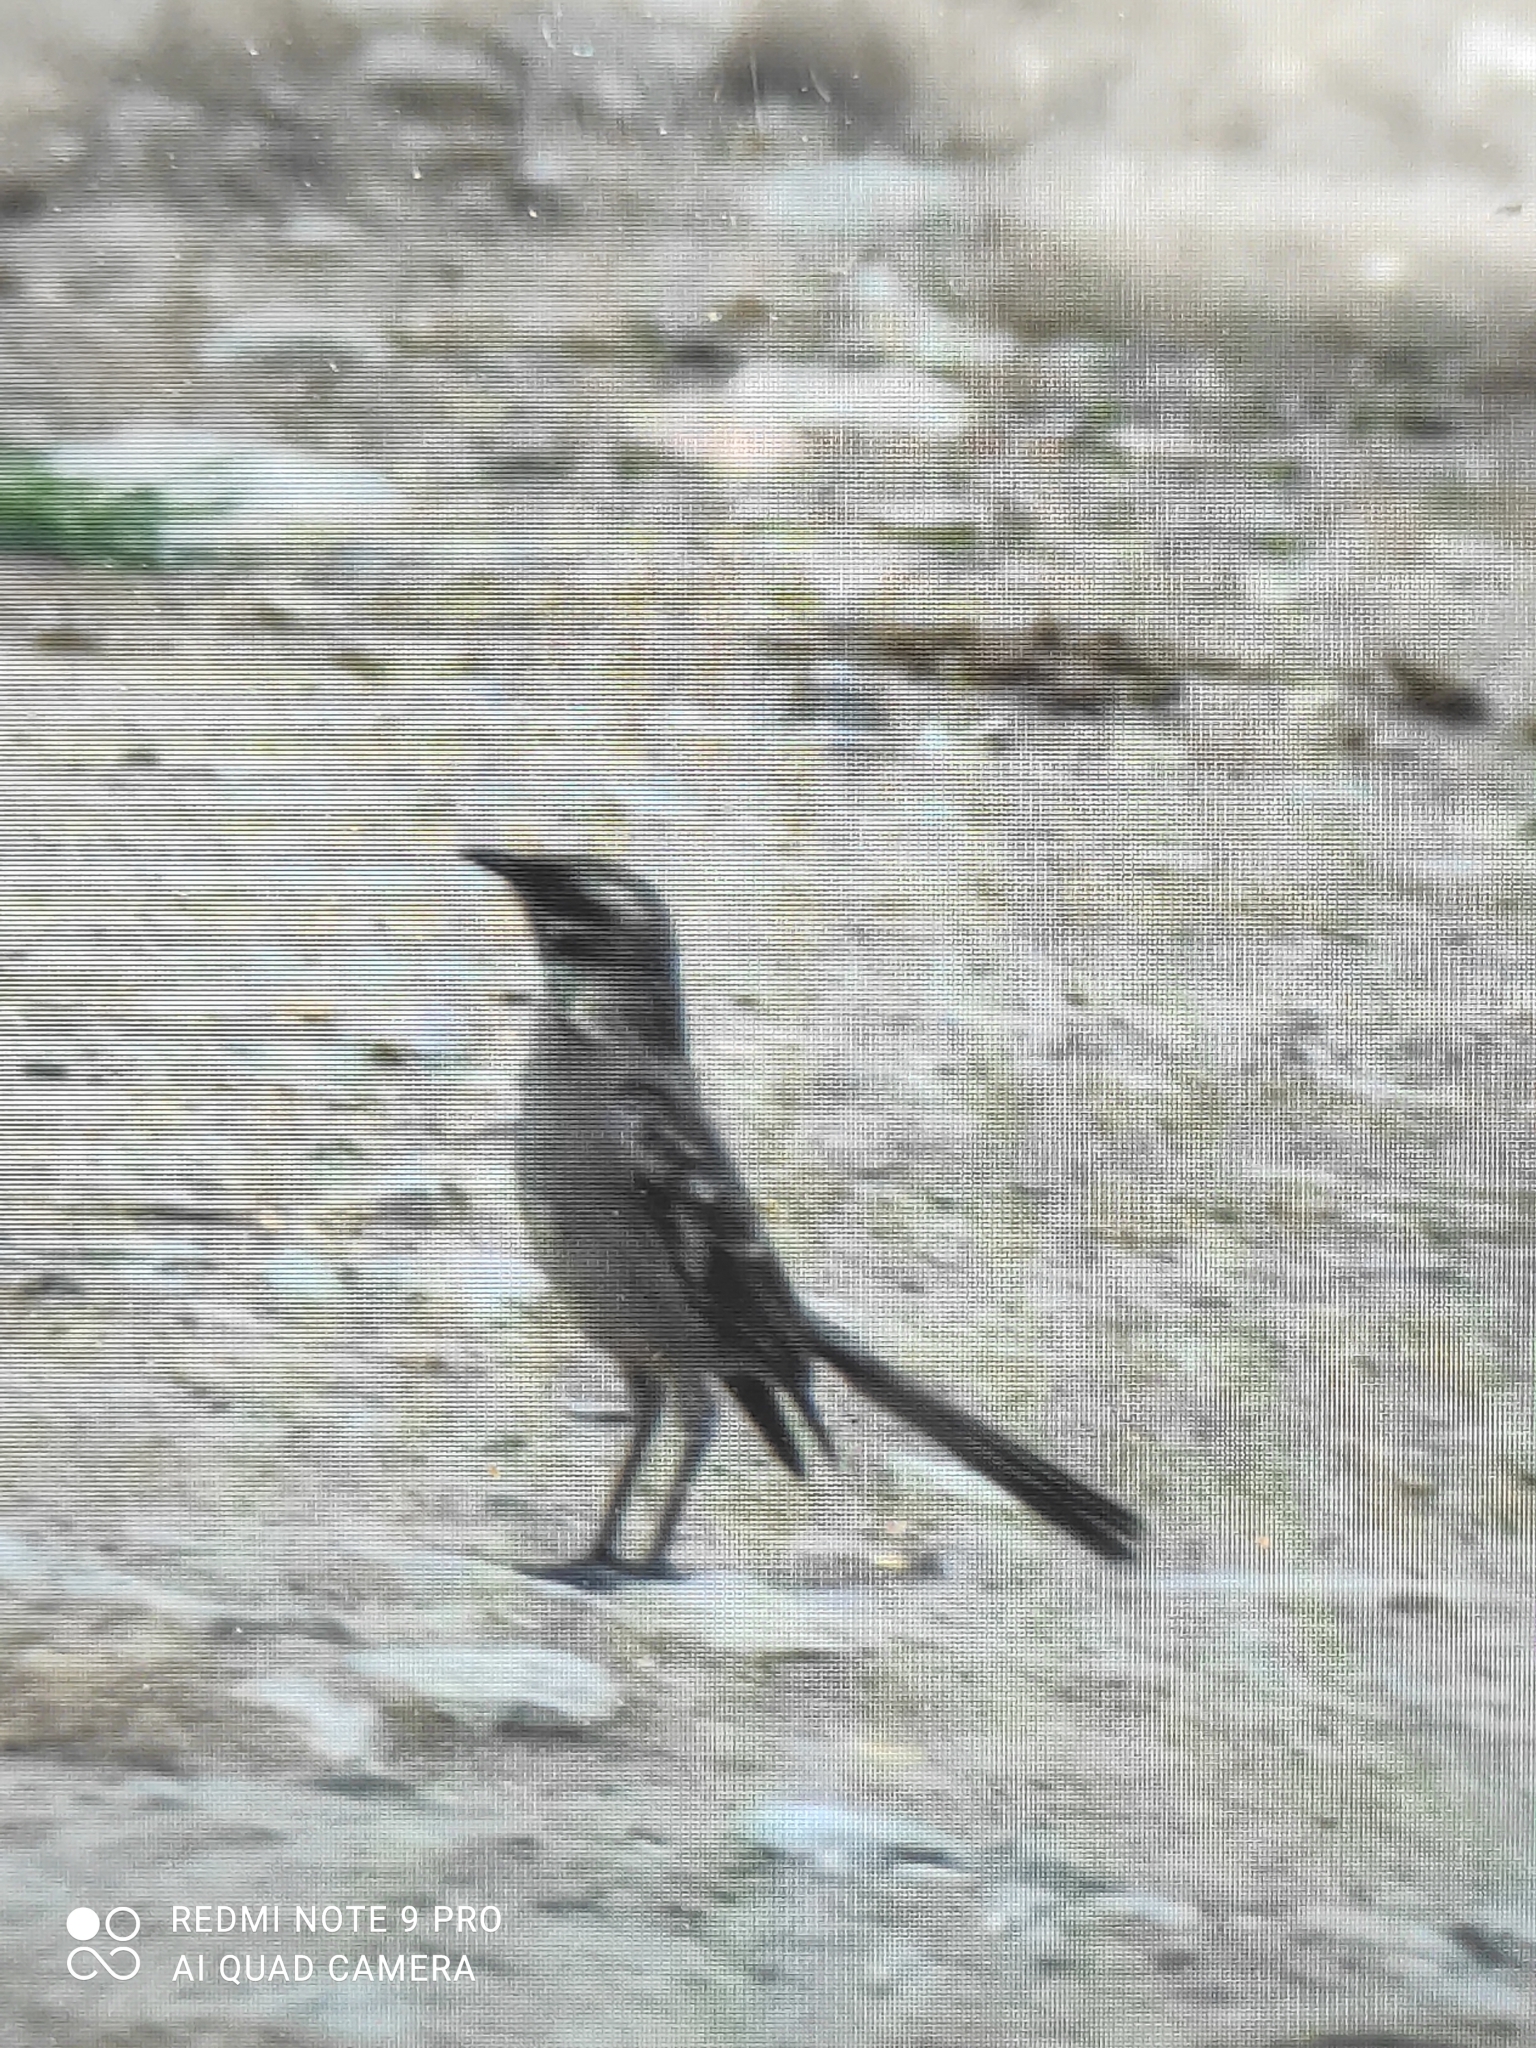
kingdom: Animalia
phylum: Chordata
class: Aves
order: Passeriformes
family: Mimidae
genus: Mimus
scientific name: Mimus longicaudatus
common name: Long-tailed mockingbird
